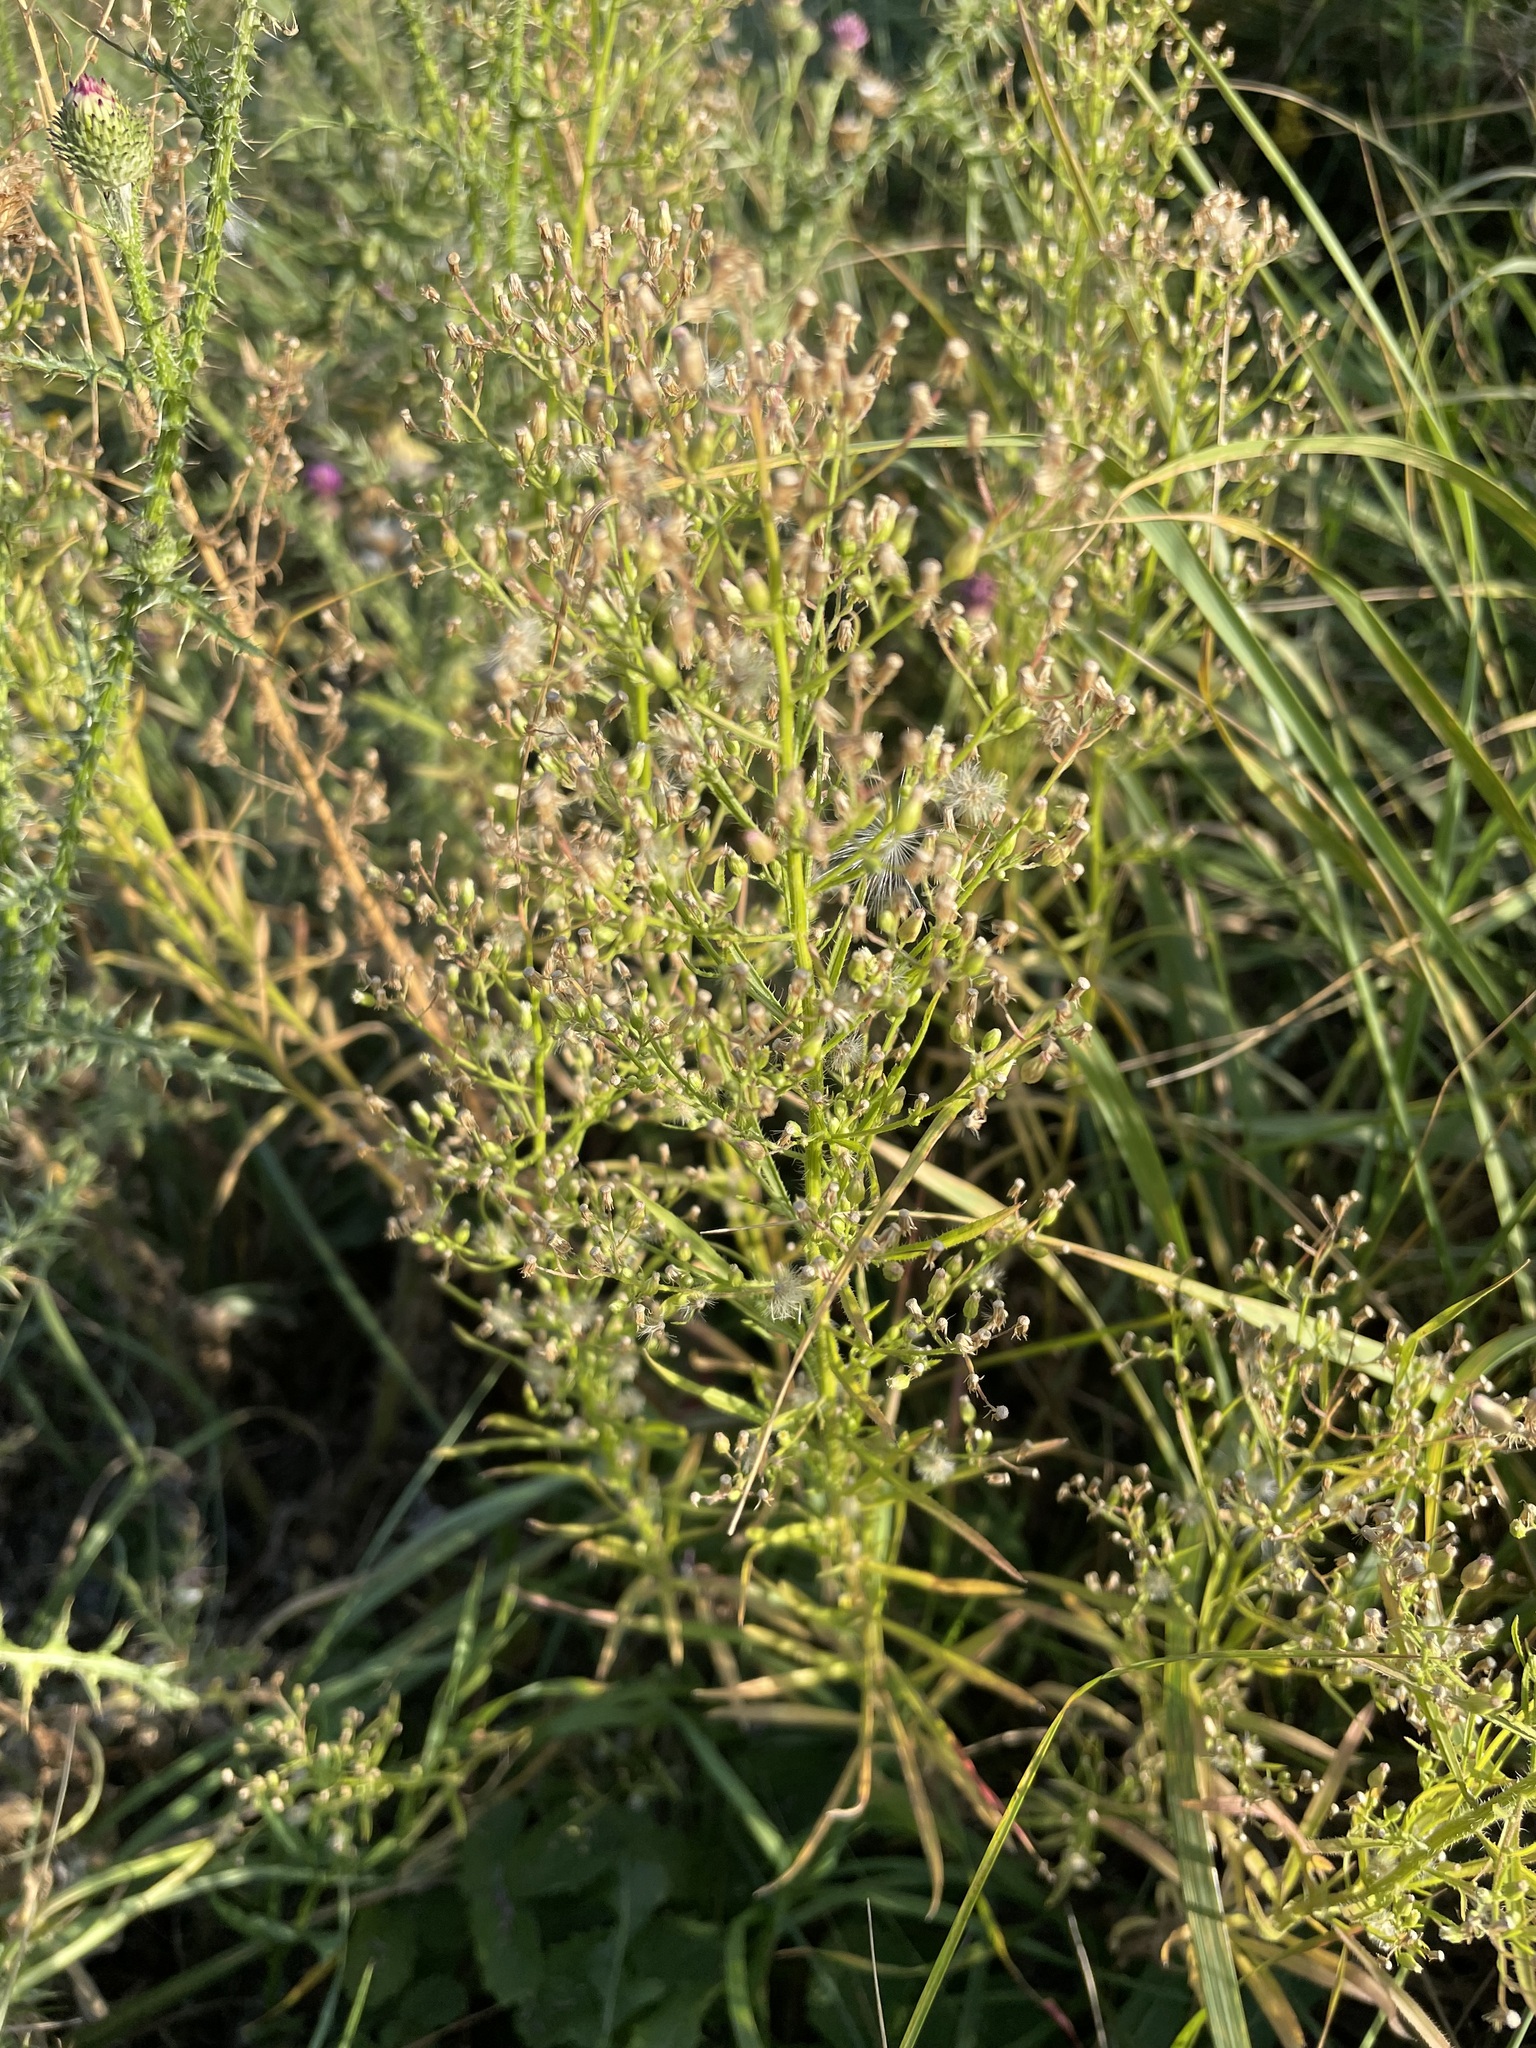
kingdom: Plantae
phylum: Tracheophyta
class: Magnoliopsida
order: Asterales
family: Asteraceae
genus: Erigeron
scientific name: Erigeron canadensis
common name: Canadian fleabane
